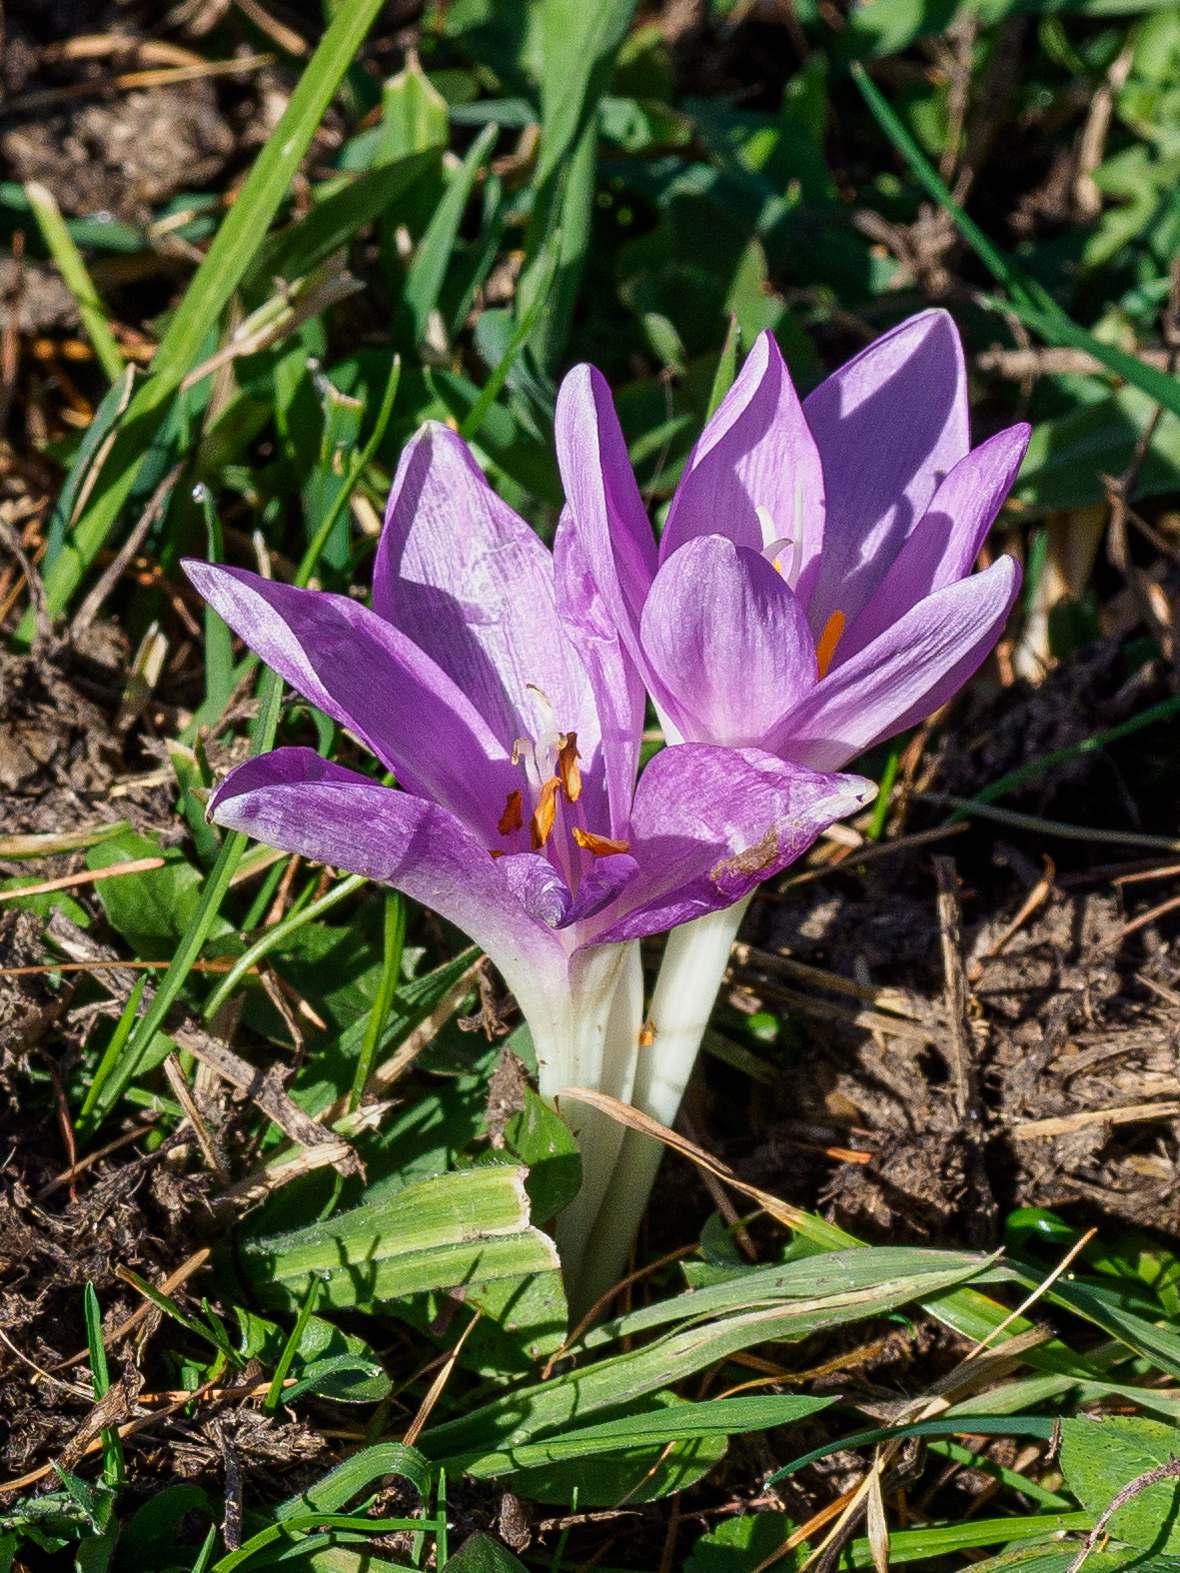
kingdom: Plantae
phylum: Tracheophyta
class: Liliopsida
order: Liliales
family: Colchicaceae
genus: Colchicum
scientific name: Colchicum autumnale
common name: Autumn crocus
